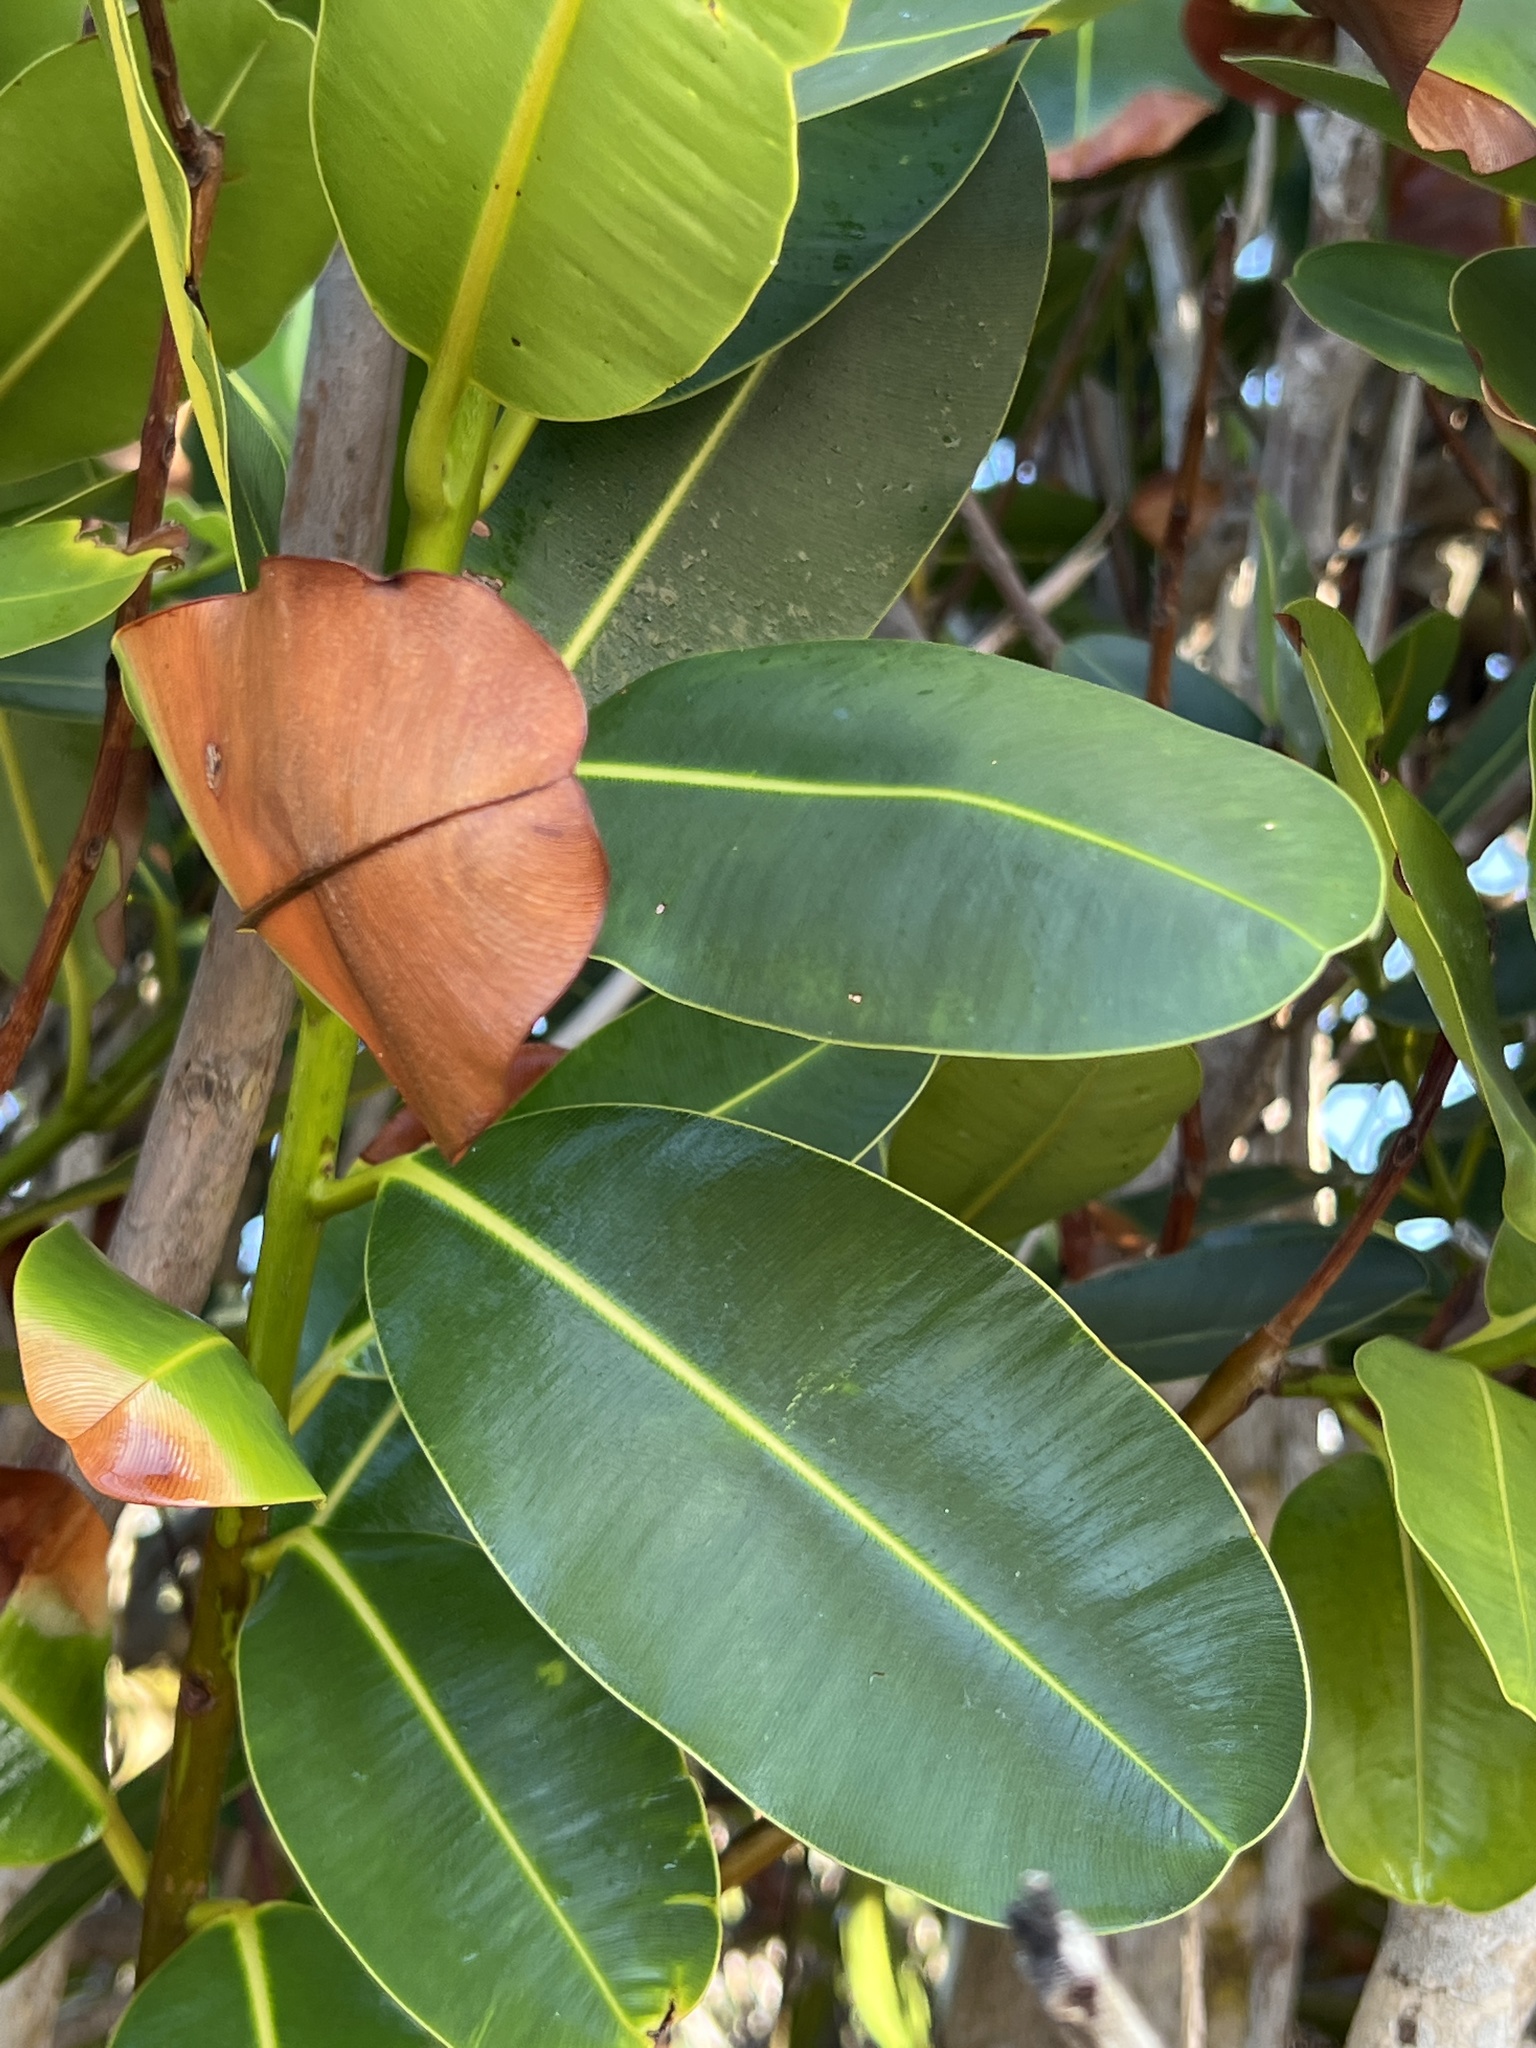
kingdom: Plantae
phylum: Tracheophyta
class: Magnoliopsida
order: Malpighiales
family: Calophyllaceae
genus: Calophyllum
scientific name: Calophyllum inophyllum
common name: Alexandrian laurel
